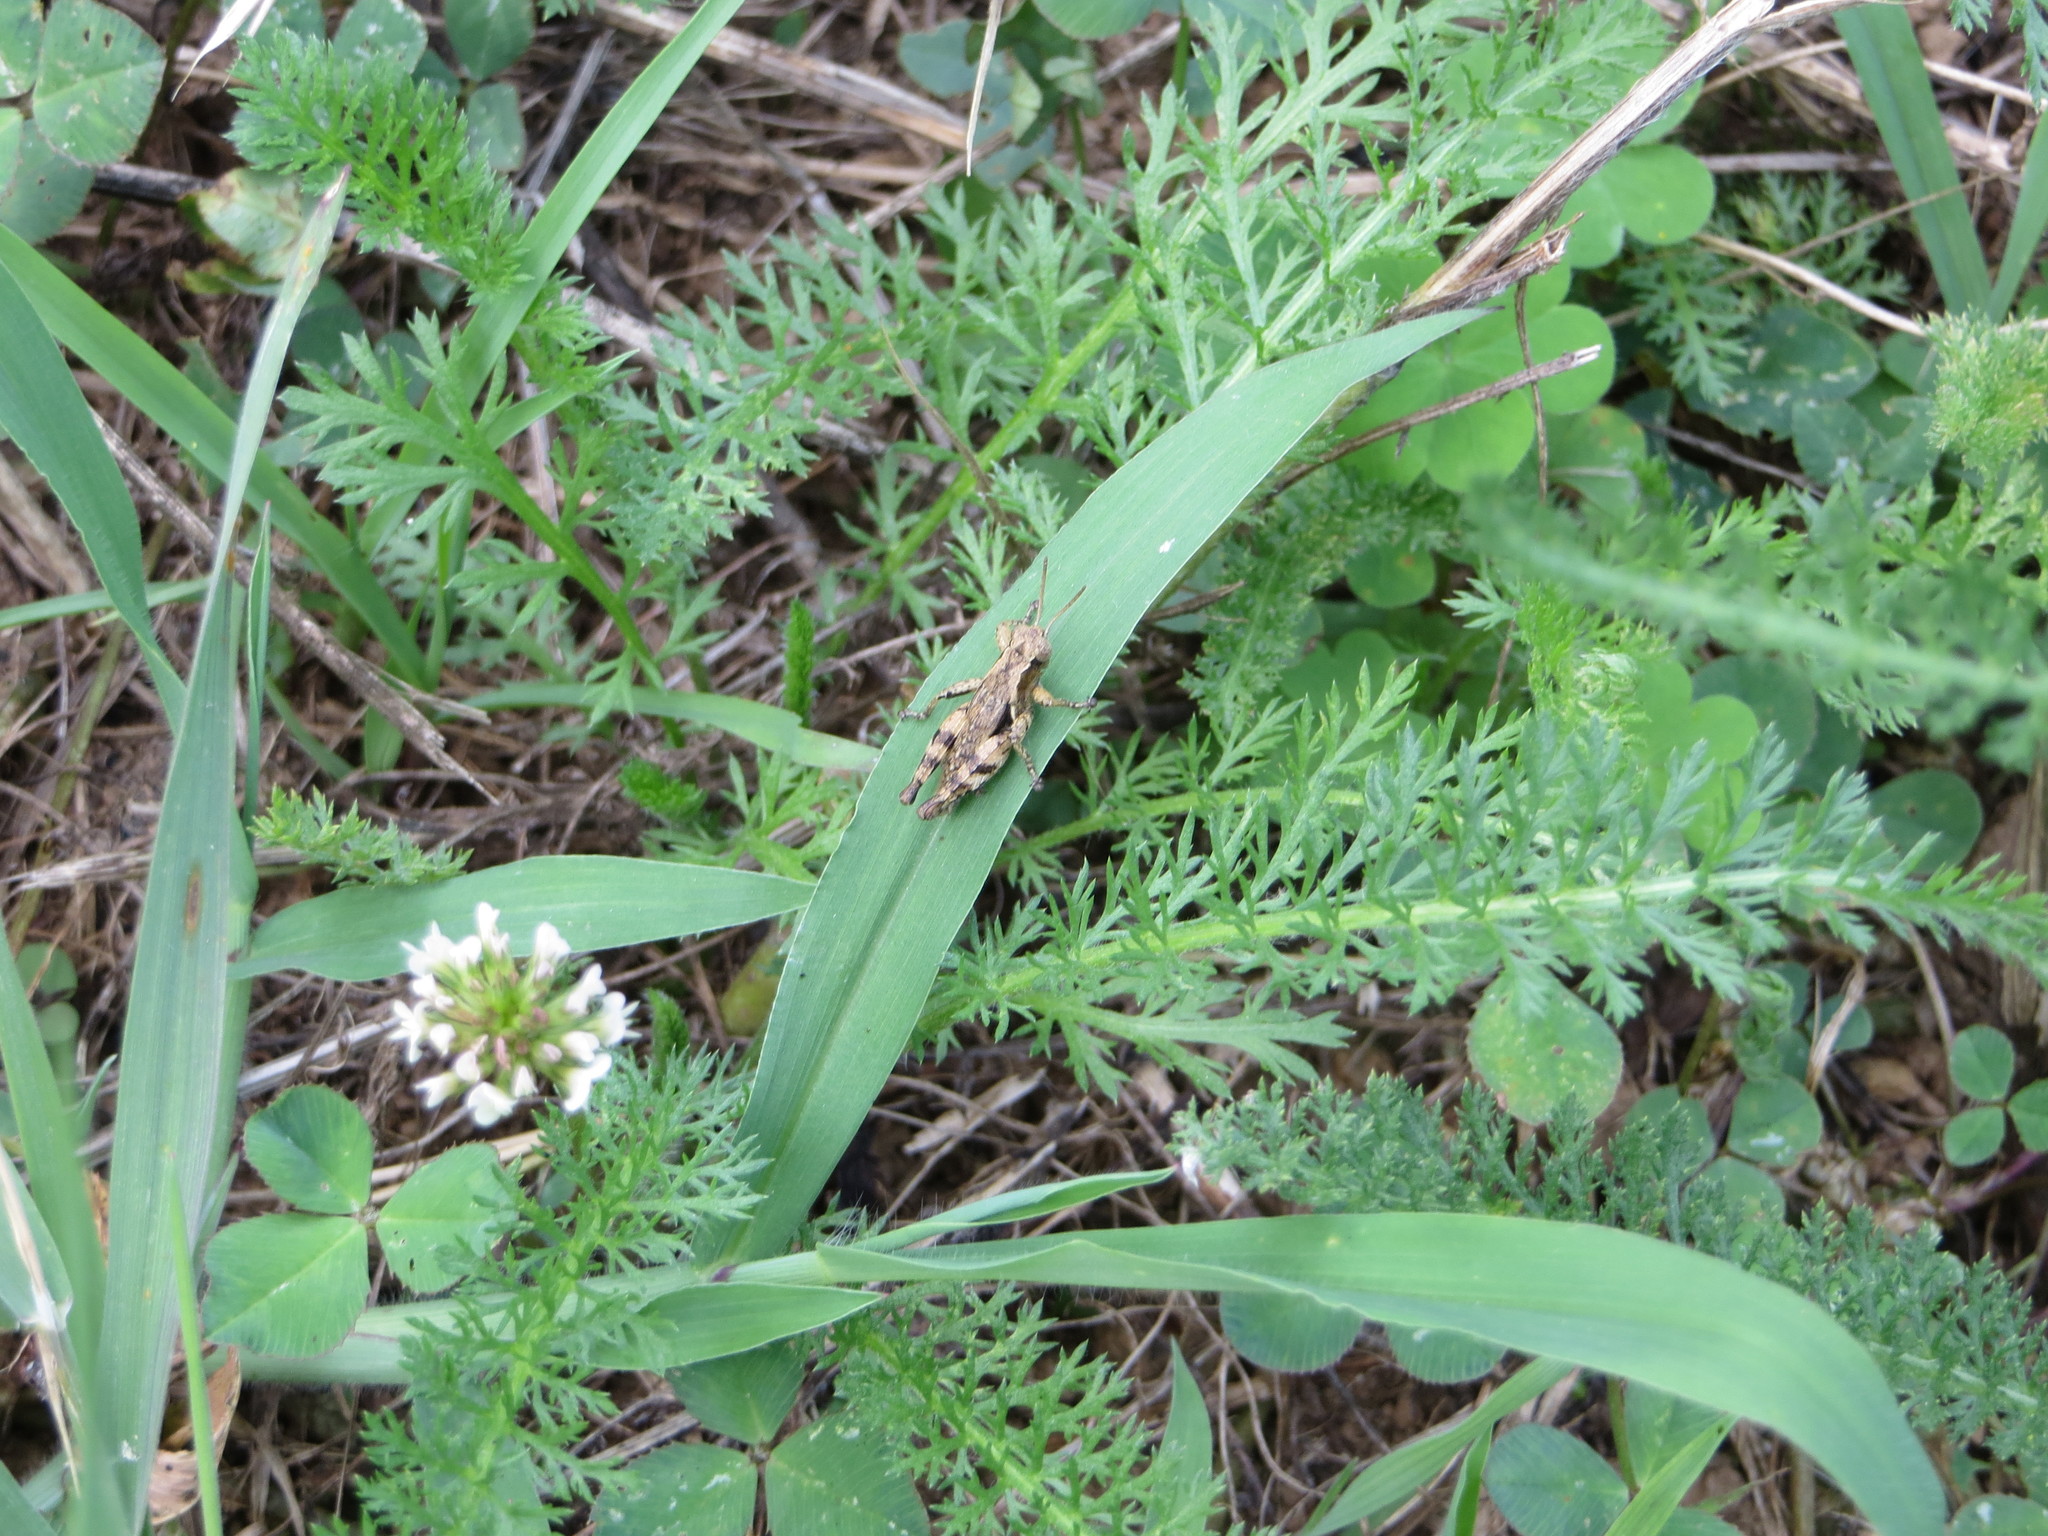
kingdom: Animalia
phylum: Arthropoda
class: Insecta
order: Orthoptera
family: Acrididae
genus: Pezotettix
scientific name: Pezotettix giornae
